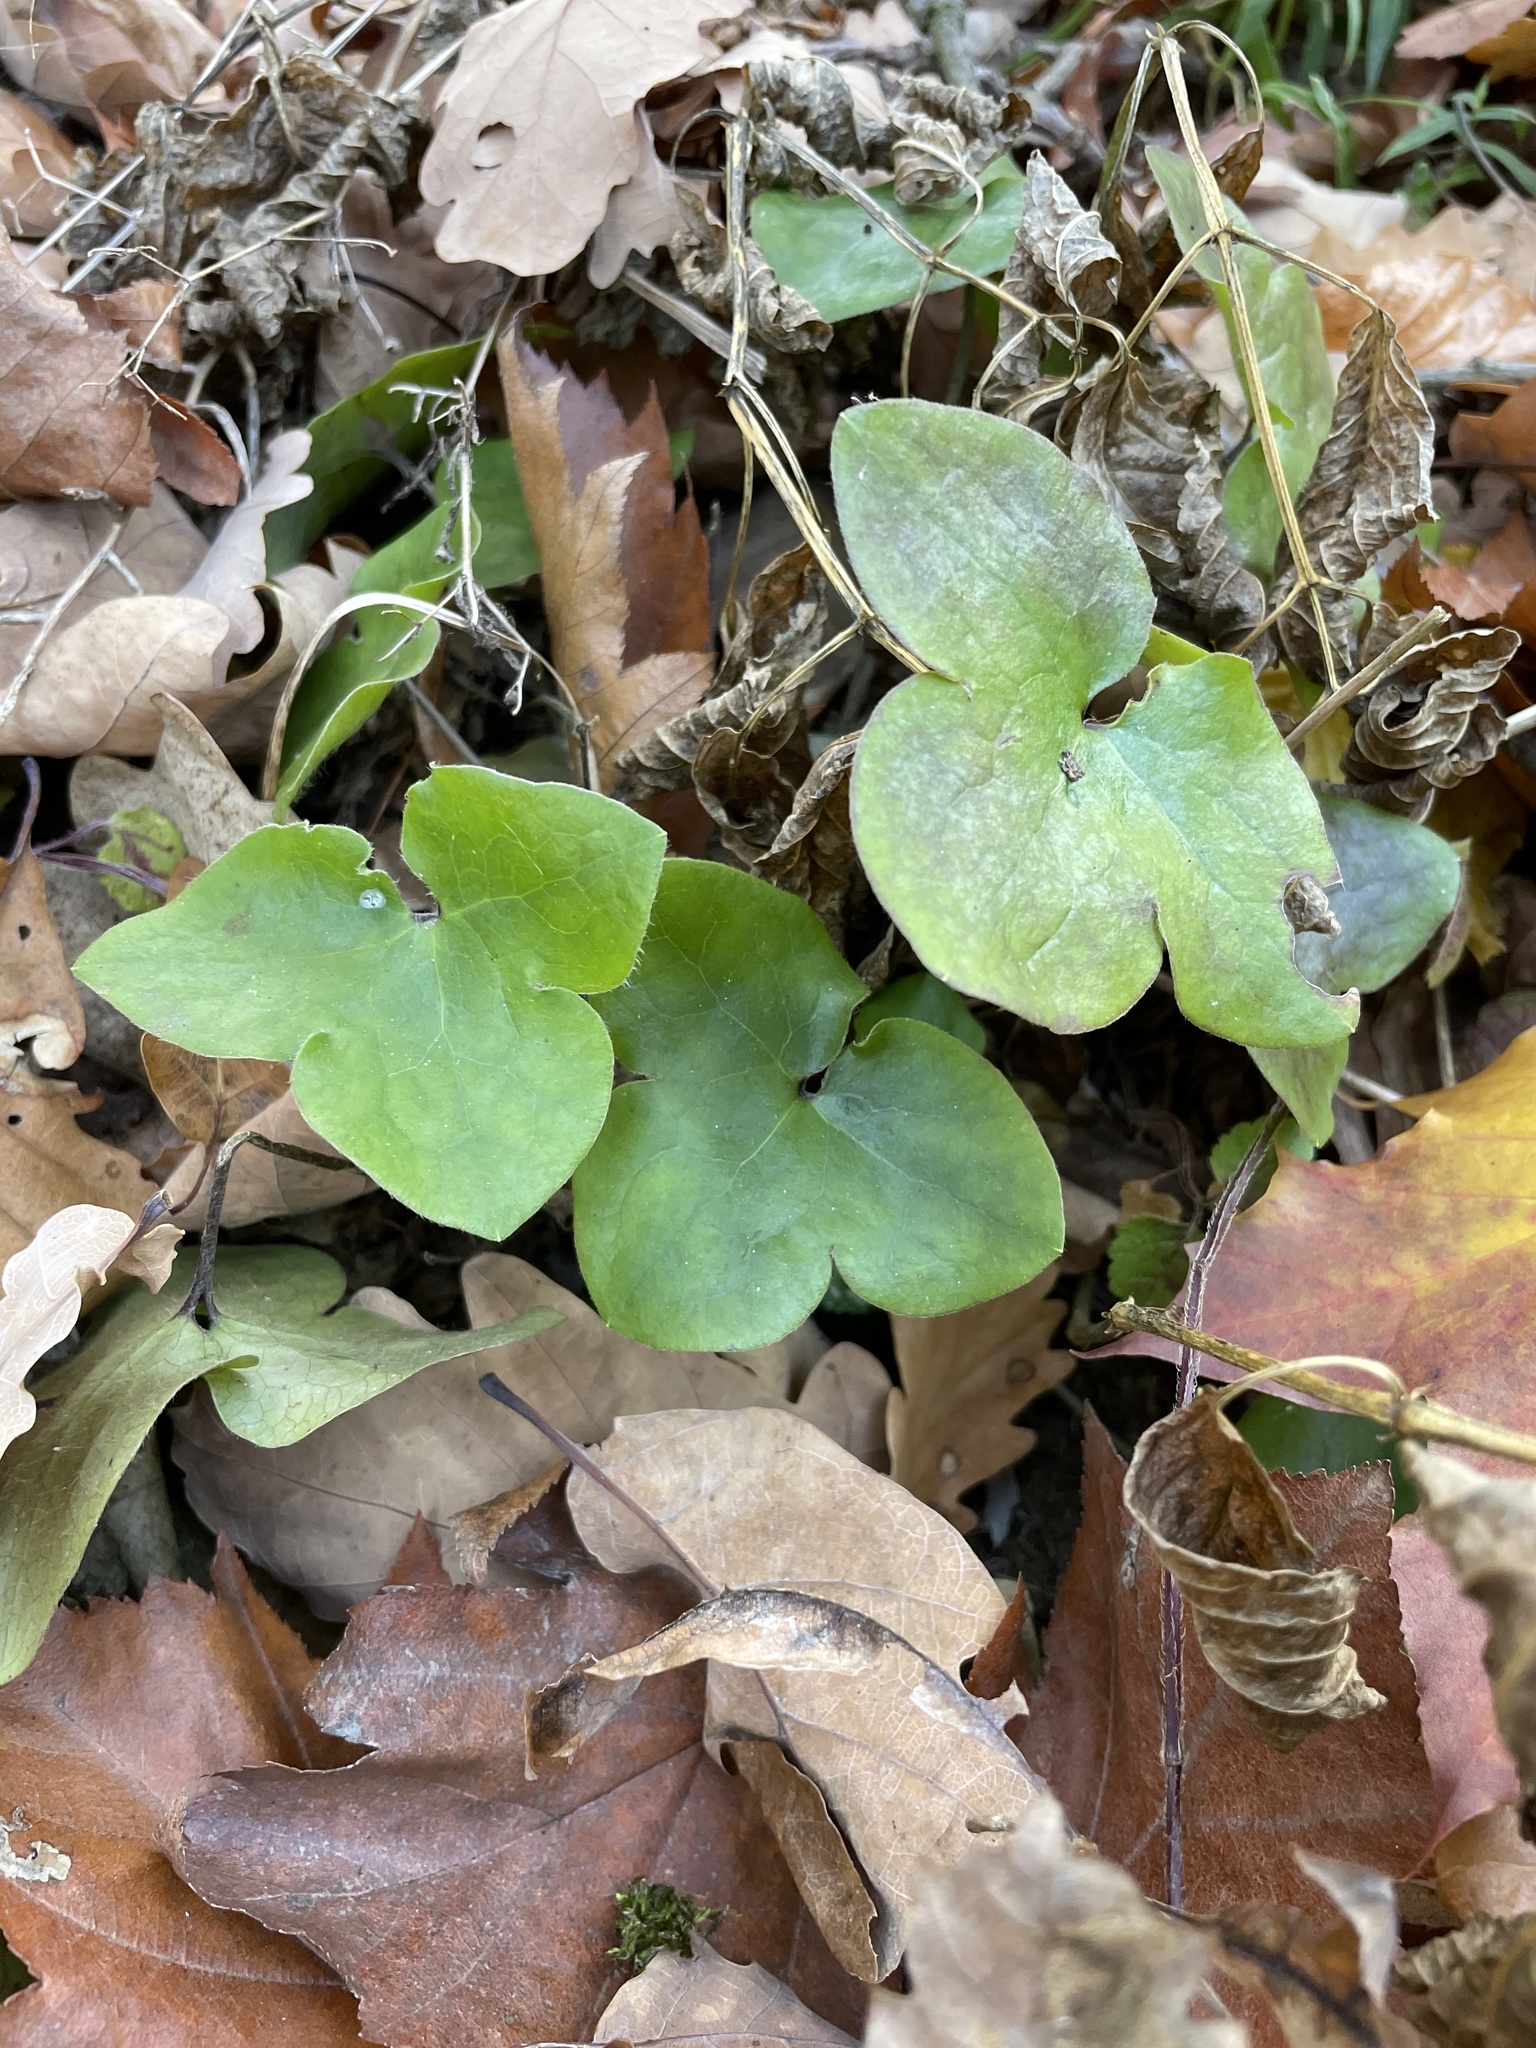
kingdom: Plantae
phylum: Tracheophyta
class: Magnoliopsida
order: Ranunculales
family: Ranunculaceae
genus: Hepatica
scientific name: Hepatica nobilis
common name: Liverleaf
